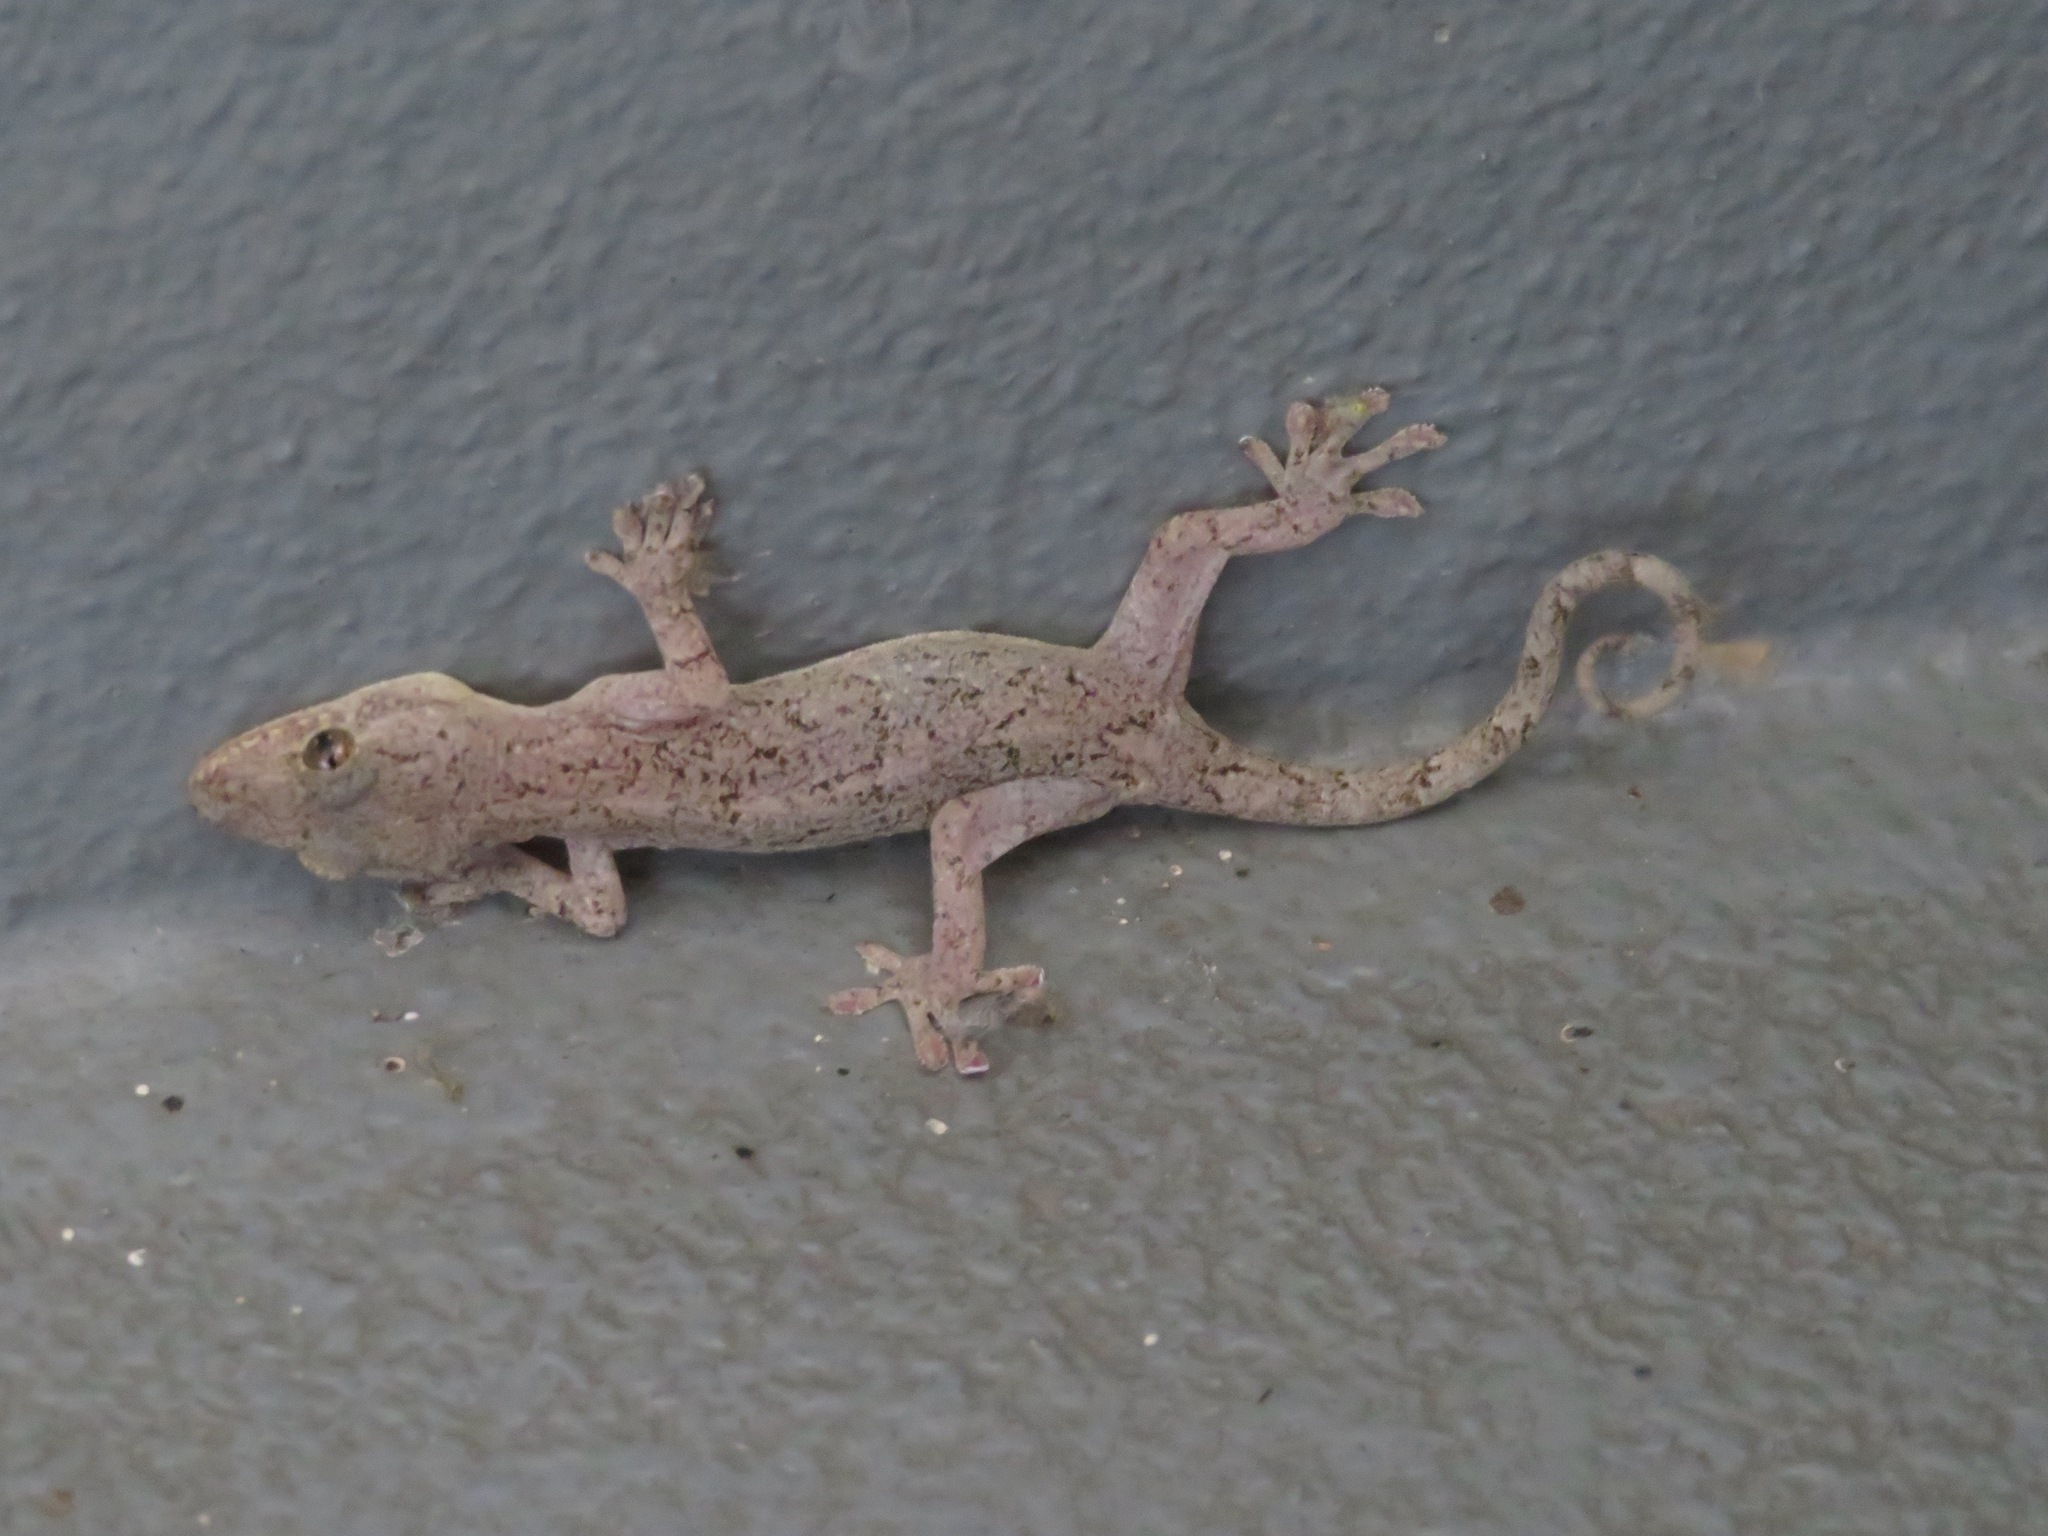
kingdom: Animalia
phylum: Chordata
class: Squamata
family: Gekkonidae
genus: Gekko
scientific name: Gekko japonicus
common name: Schlegel's japanese gecko
